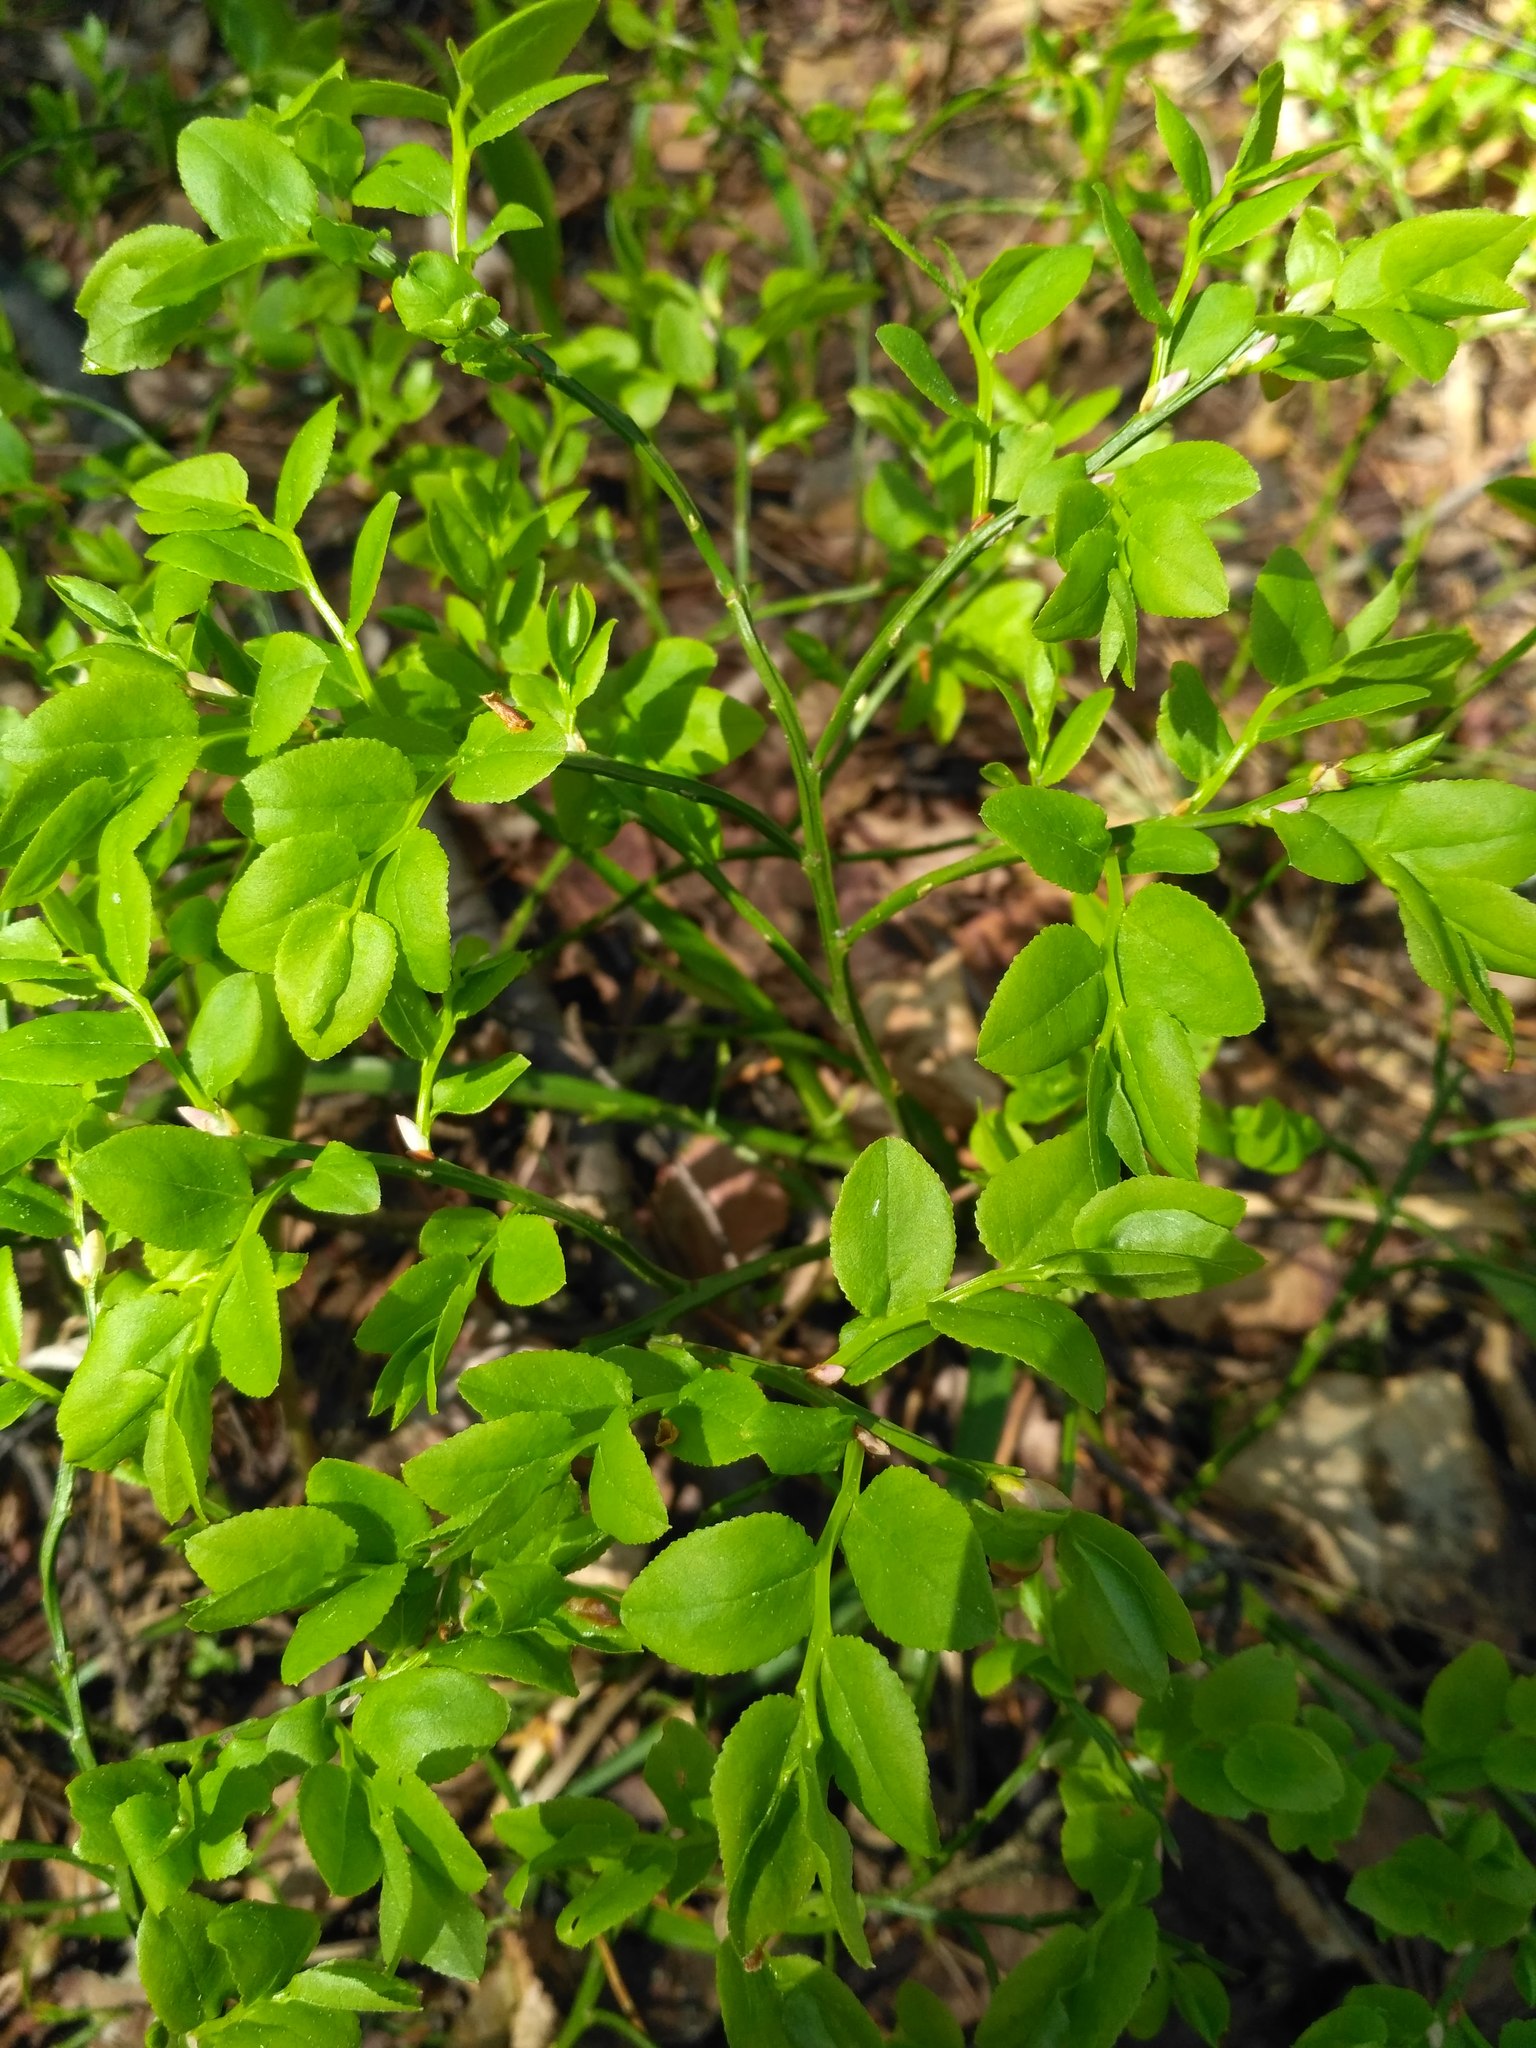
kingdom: Plantae
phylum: Tracheophyta
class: Magnoliopsida
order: Ericales
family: Ericaceae
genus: Vaccinium
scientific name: Vaccinium myrtillus
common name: Bilberry
